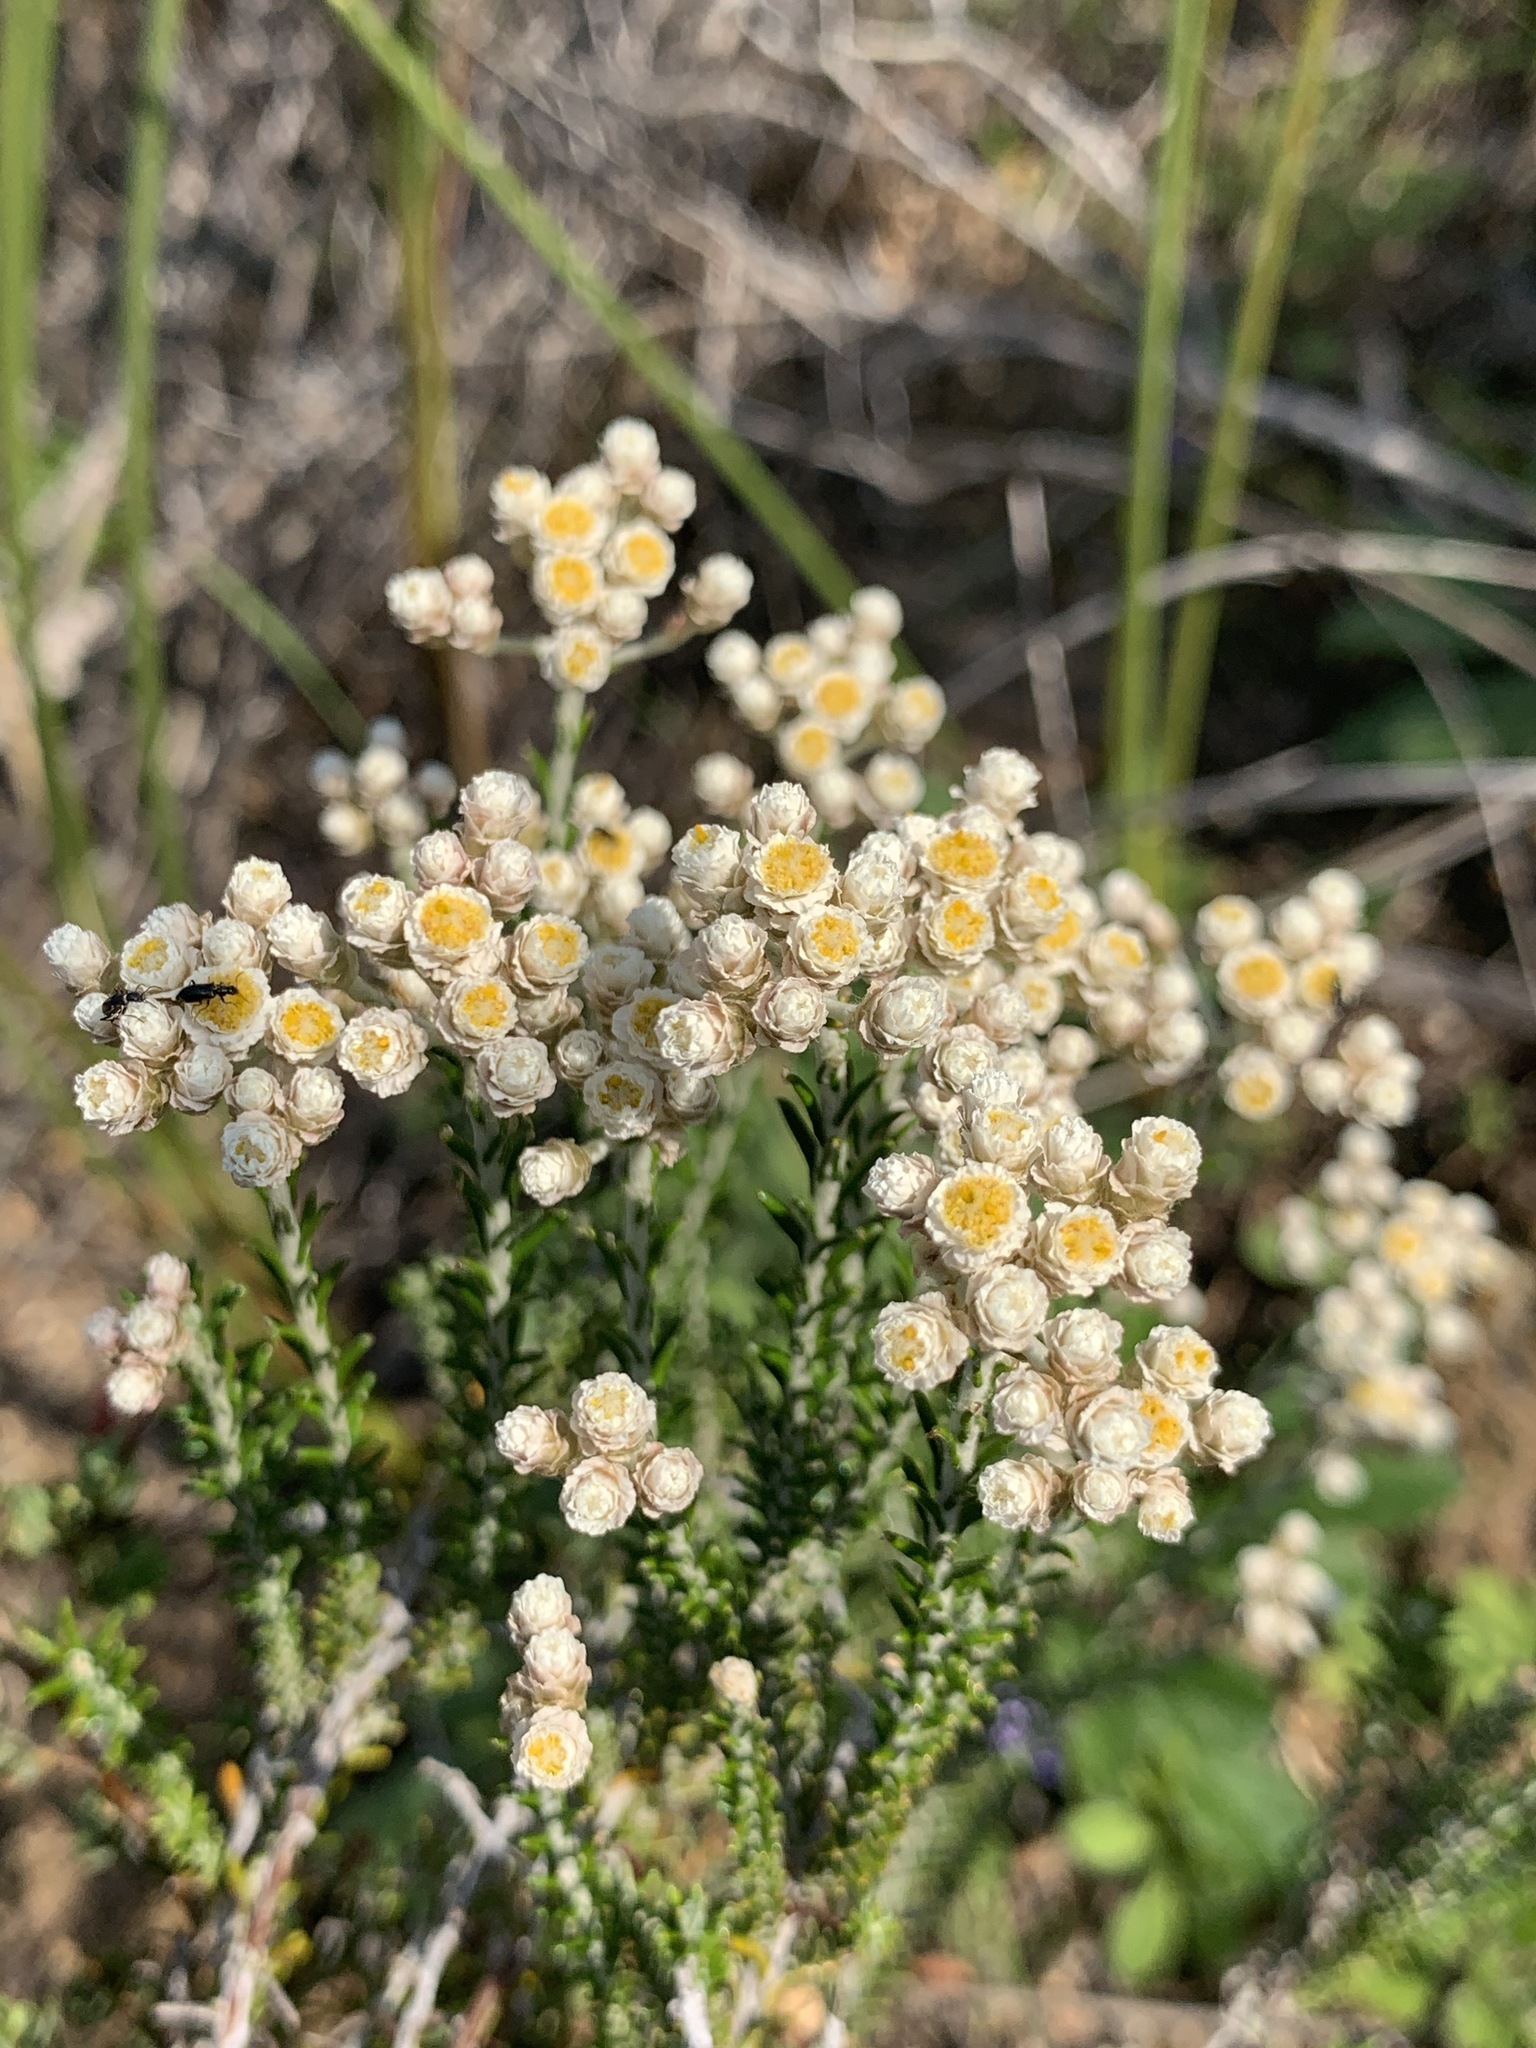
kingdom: Plantae
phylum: Tracheophyta
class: Magnoliopsida
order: Asterales
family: Asteraceae
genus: Helichrysum
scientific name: Helichrysum teretifolium
